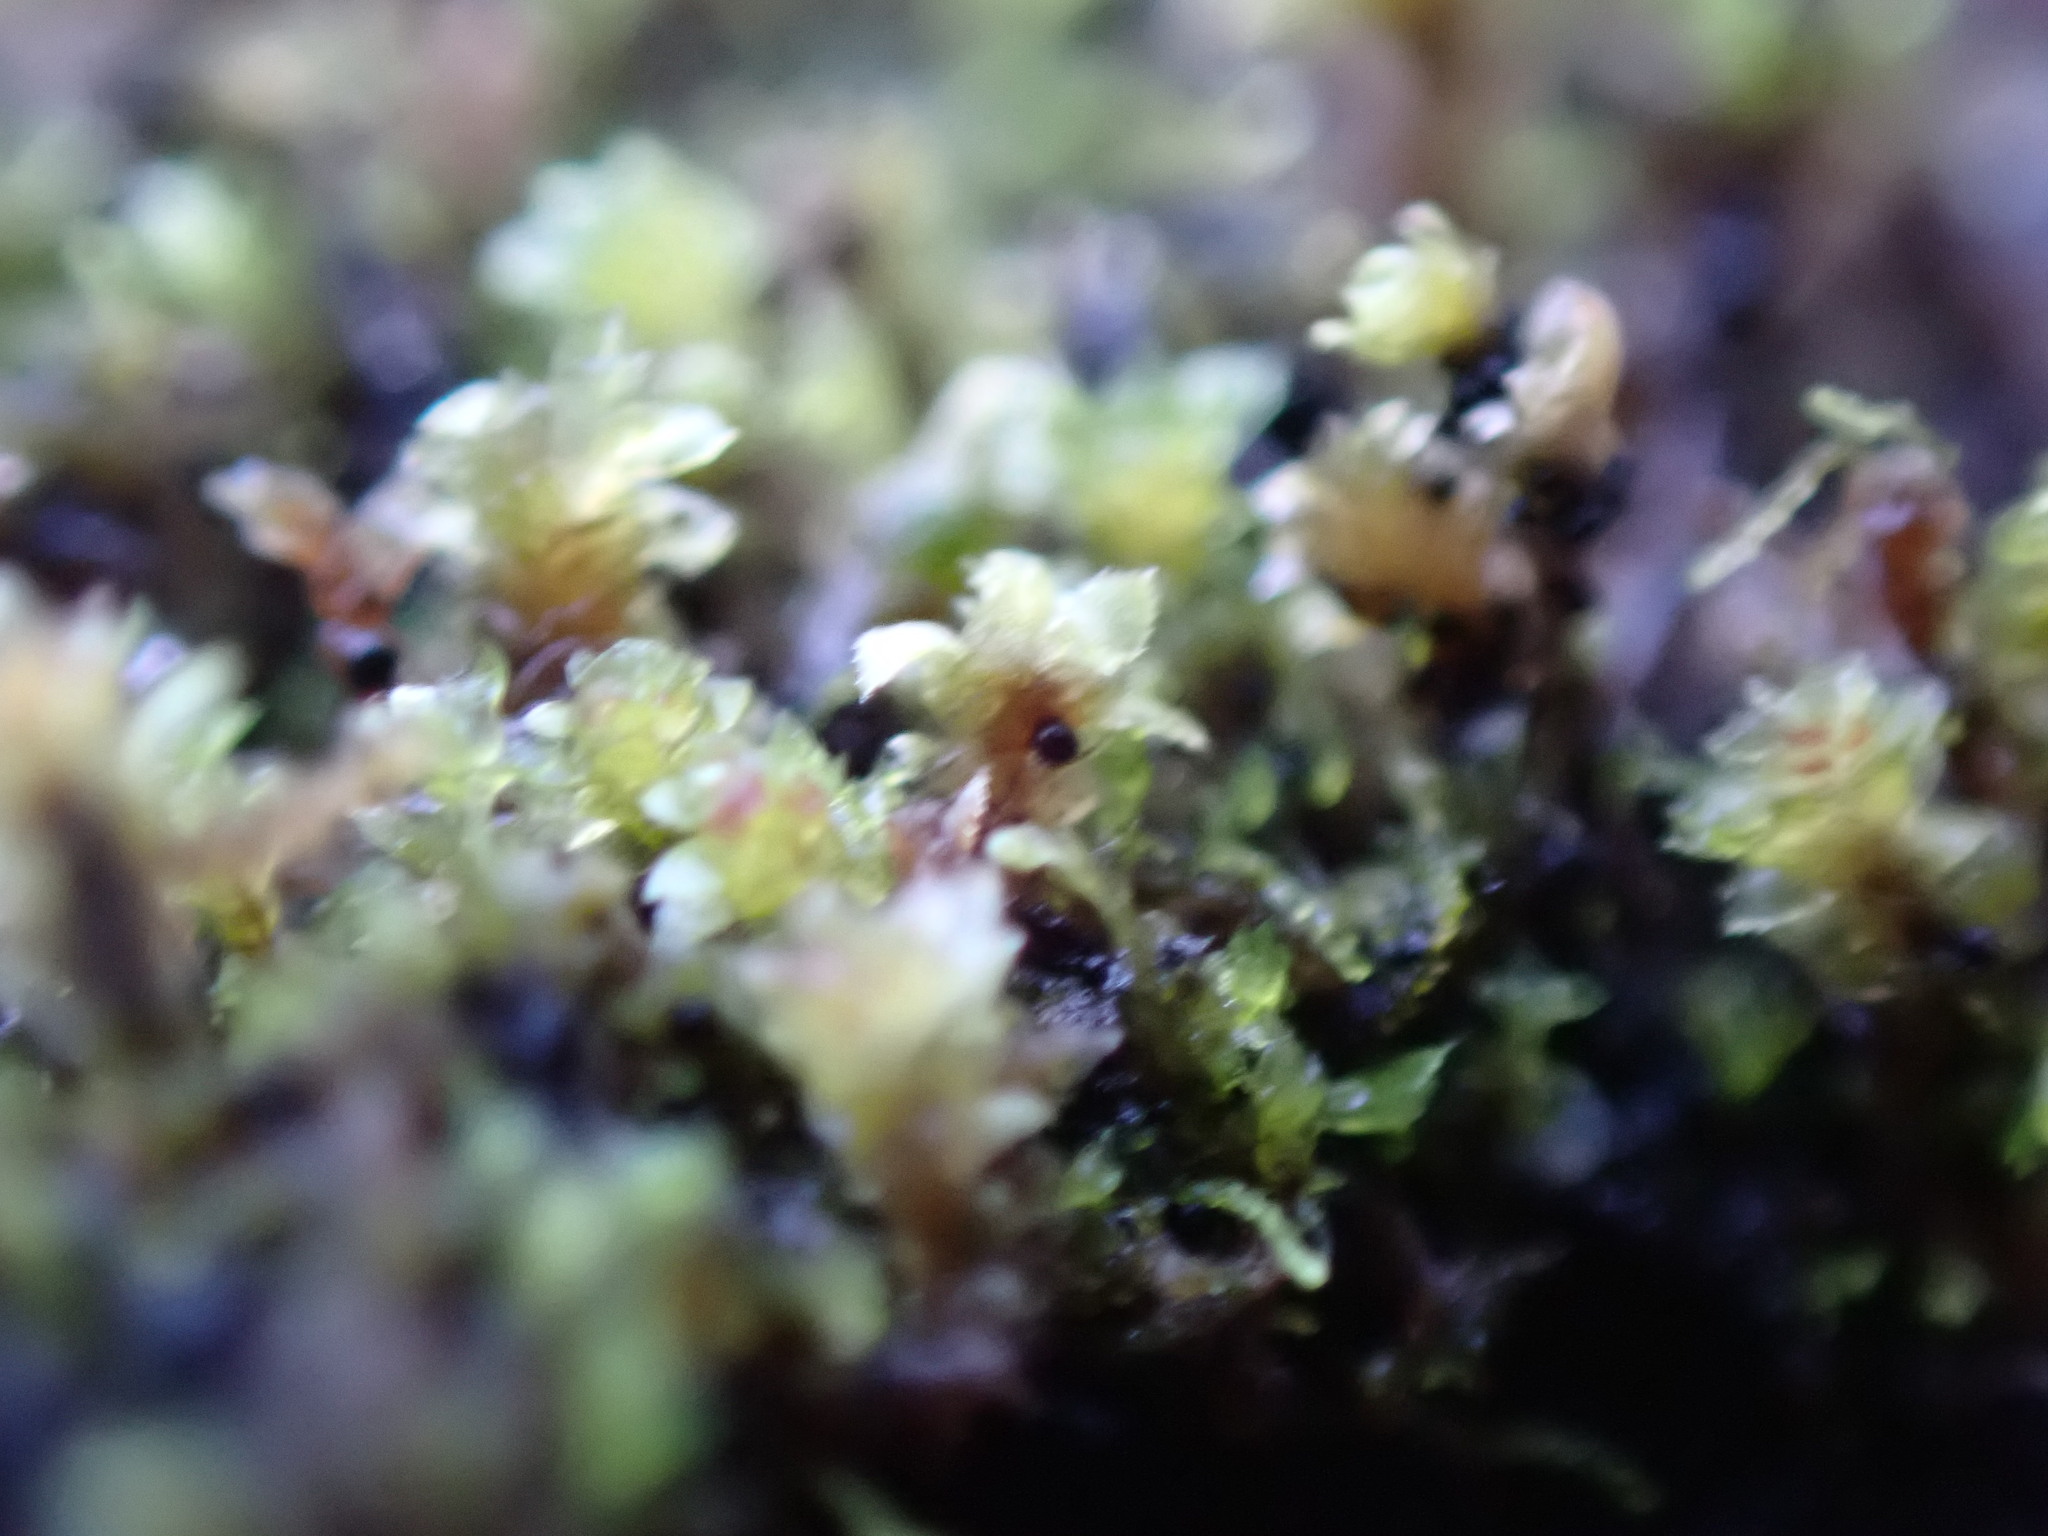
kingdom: Fungi
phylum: Ascomycota
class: Dothideomycetes
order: Dothideales
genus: Pleostigma
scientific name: Pleostigma jungermannicola
